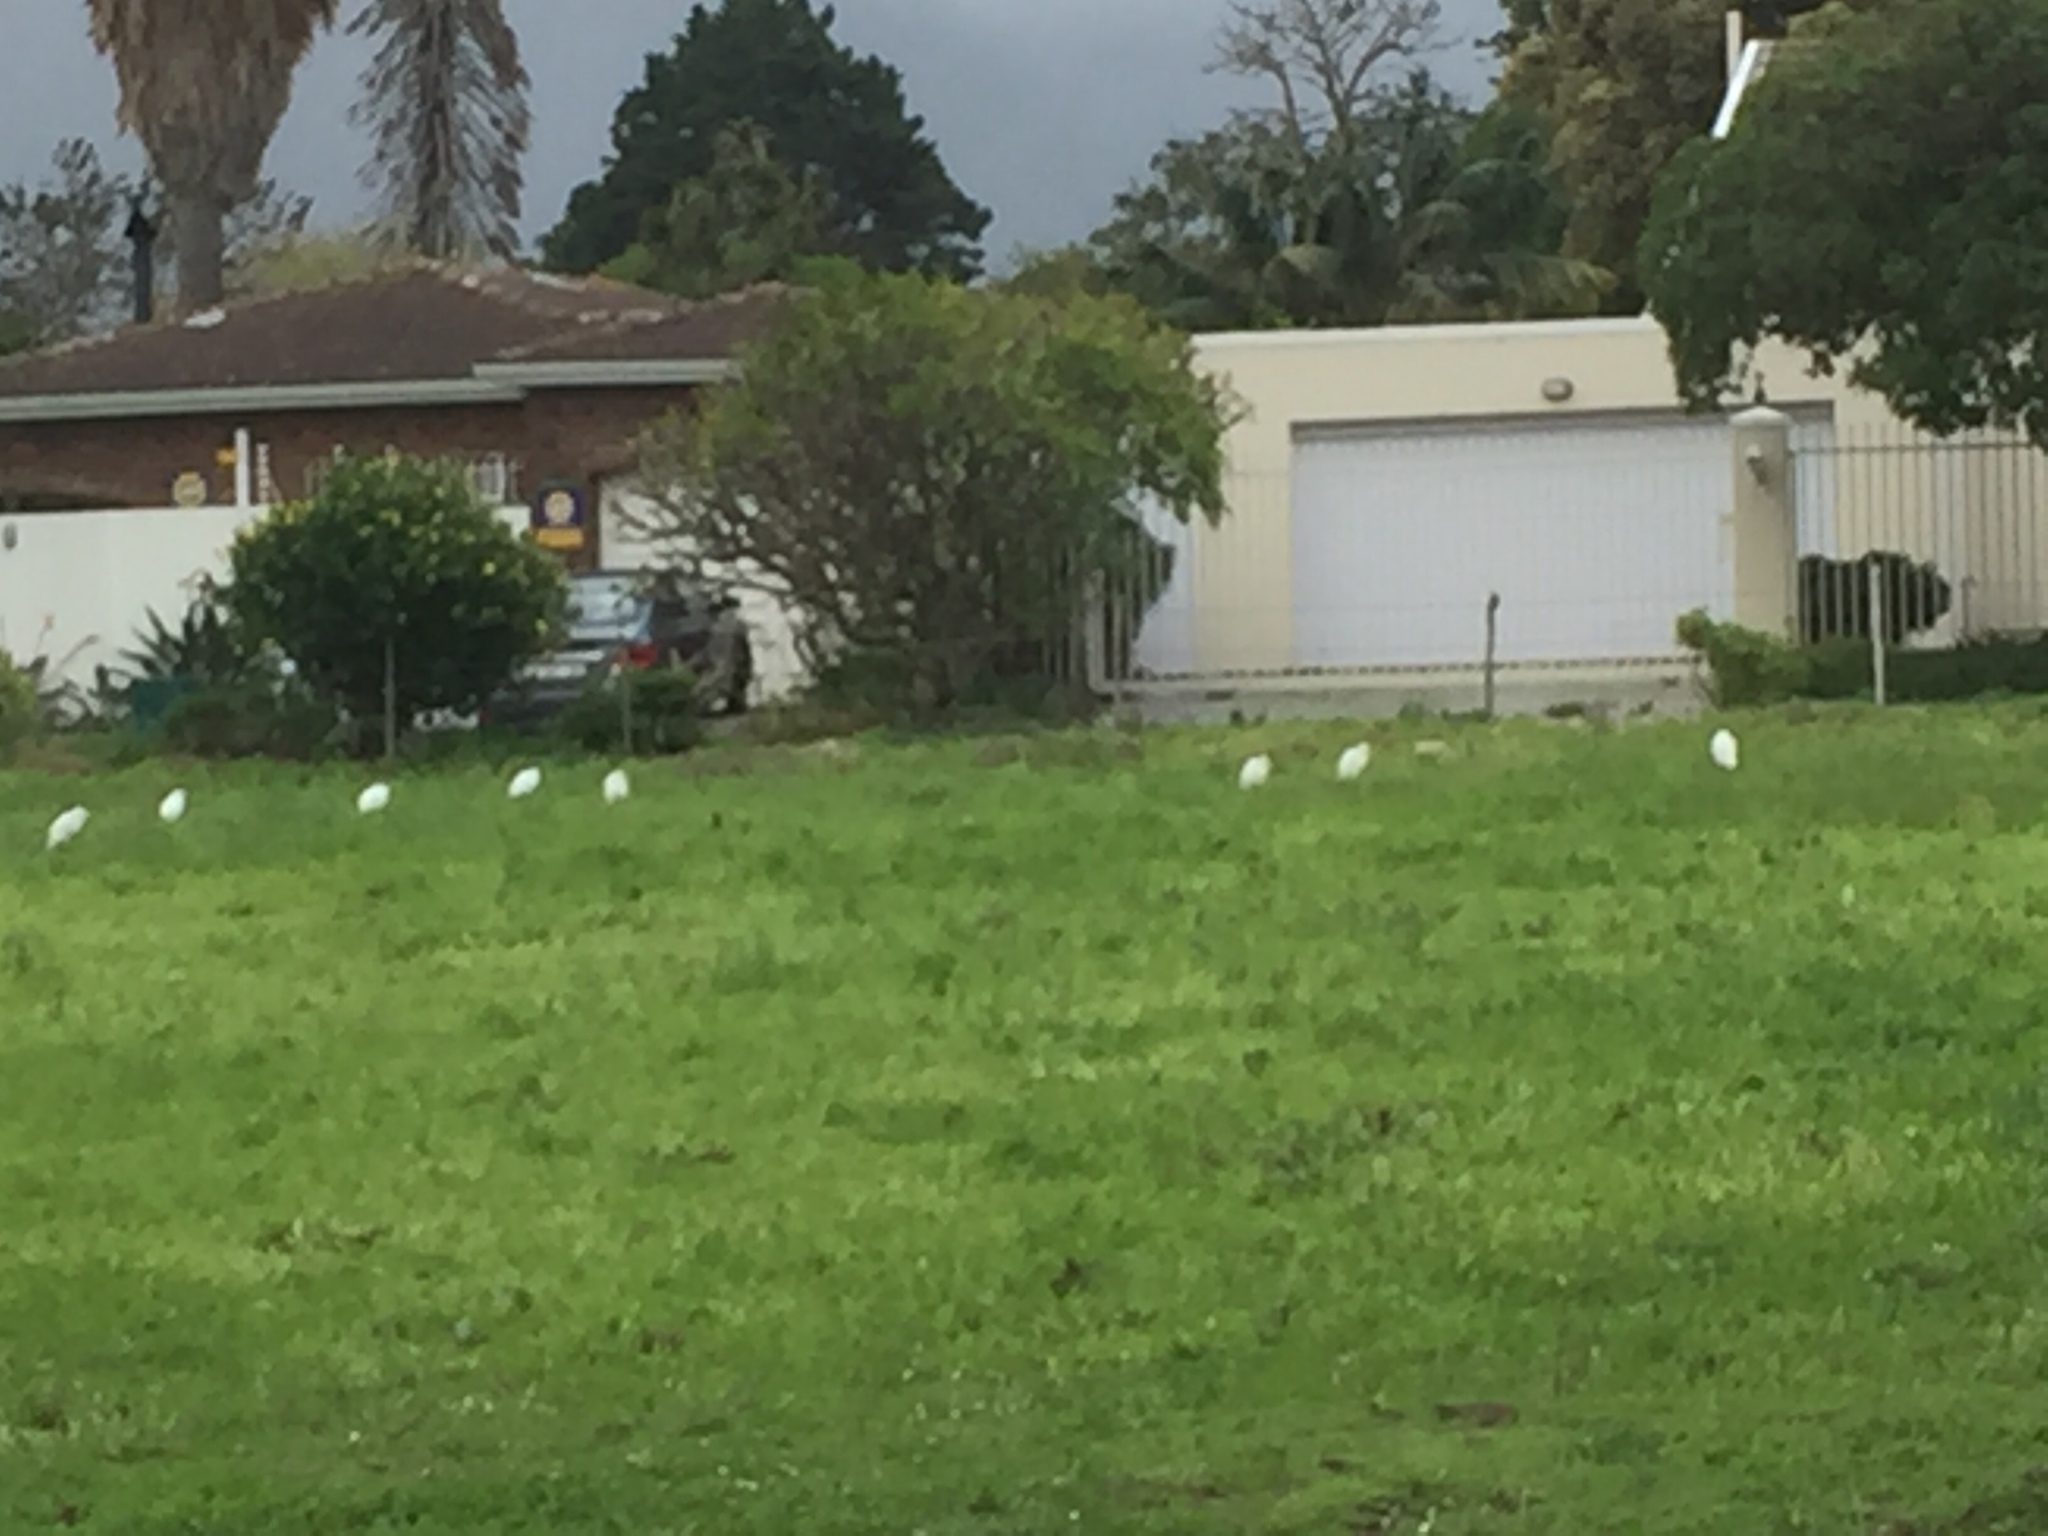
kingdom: Animalia
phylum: Chordata
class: Aves
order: Pelecaniformes
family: Ardeidae
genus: Bubulcus
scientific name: Bubulcus ibis
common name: Cattle egret
